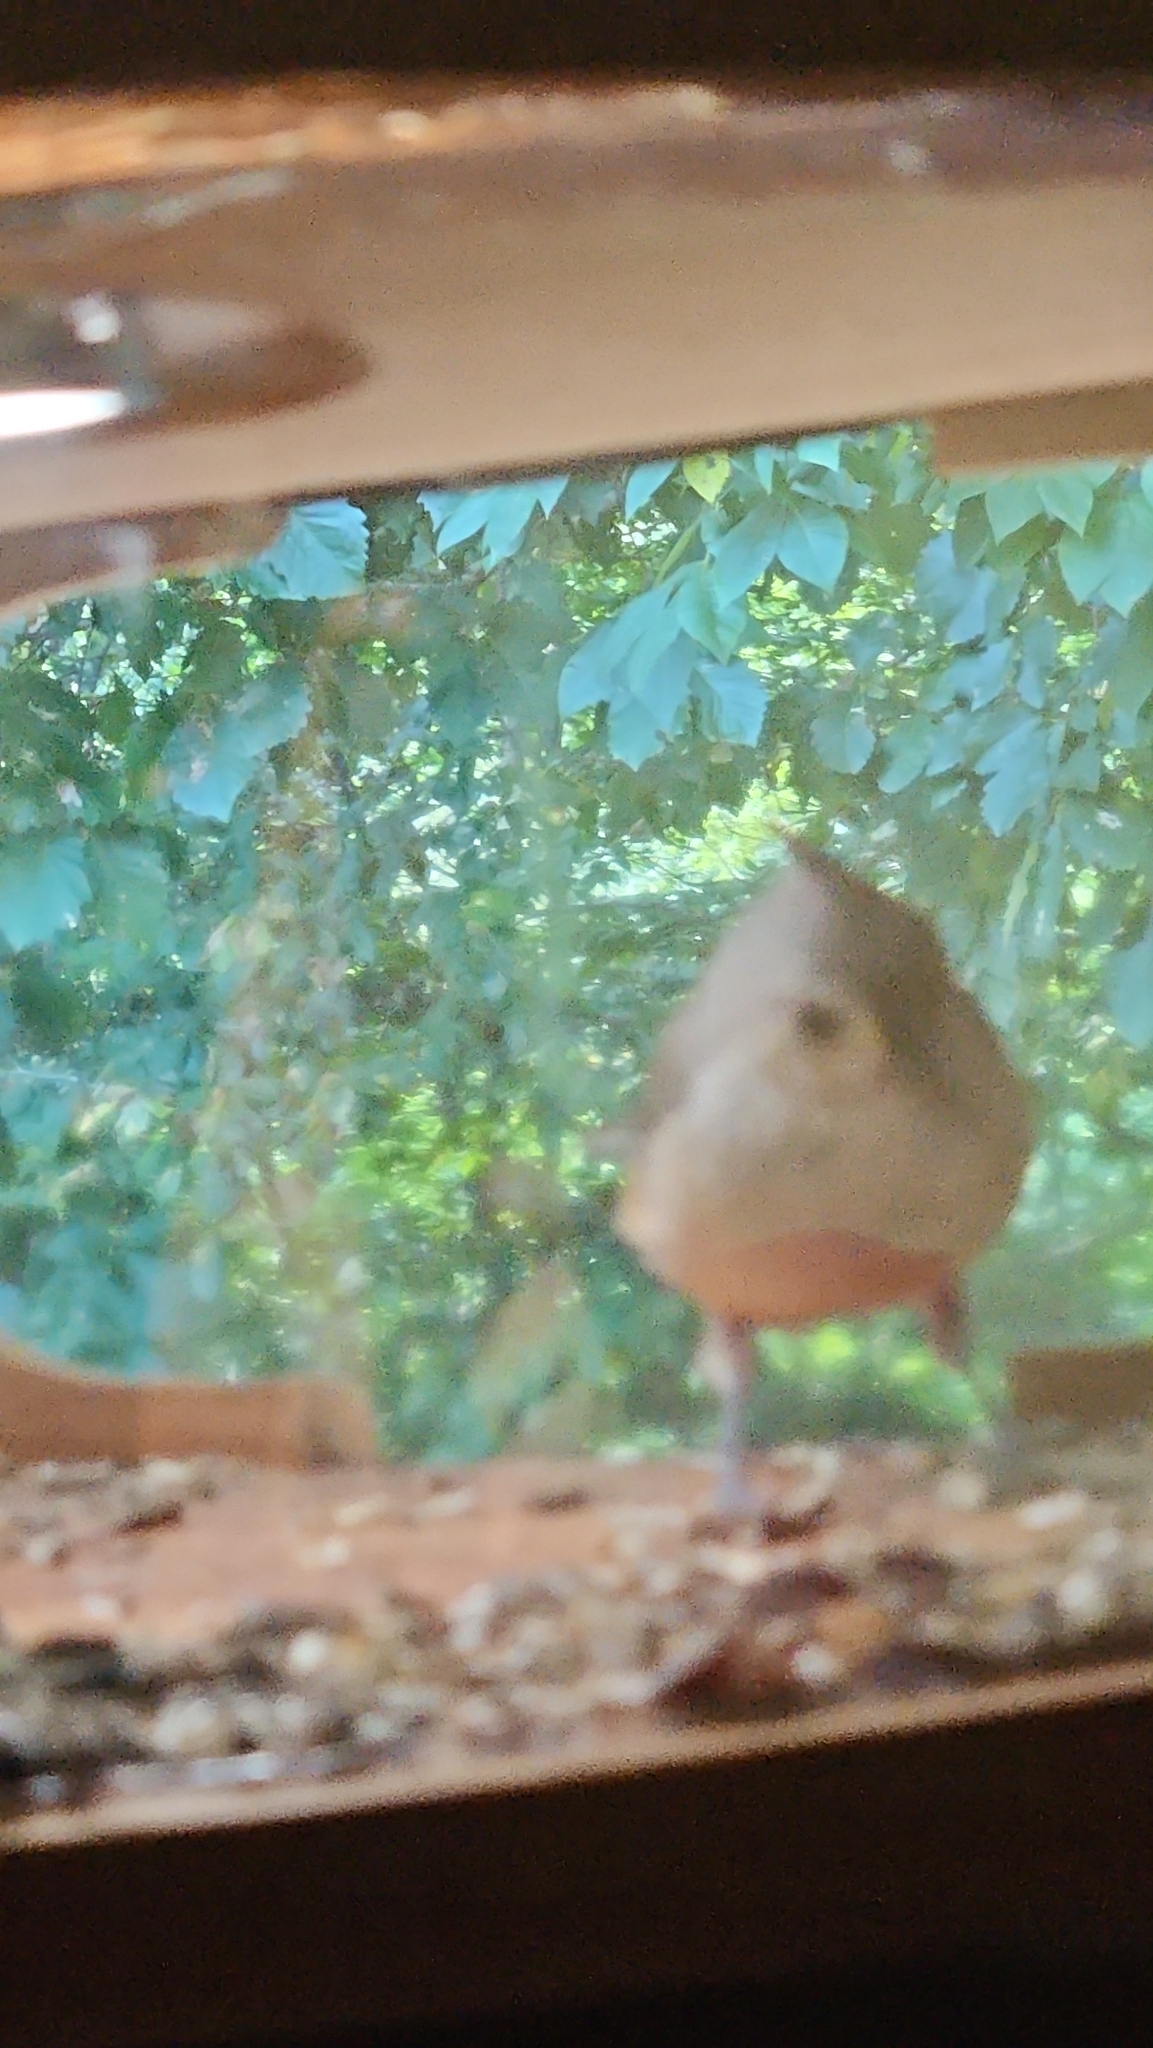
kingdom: Animalia
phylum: Chordata
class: Aves
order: Passeriformes
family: Paridae
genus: Baeolophus
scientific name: Baeolophus bicolor
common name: Tufted titmouse
